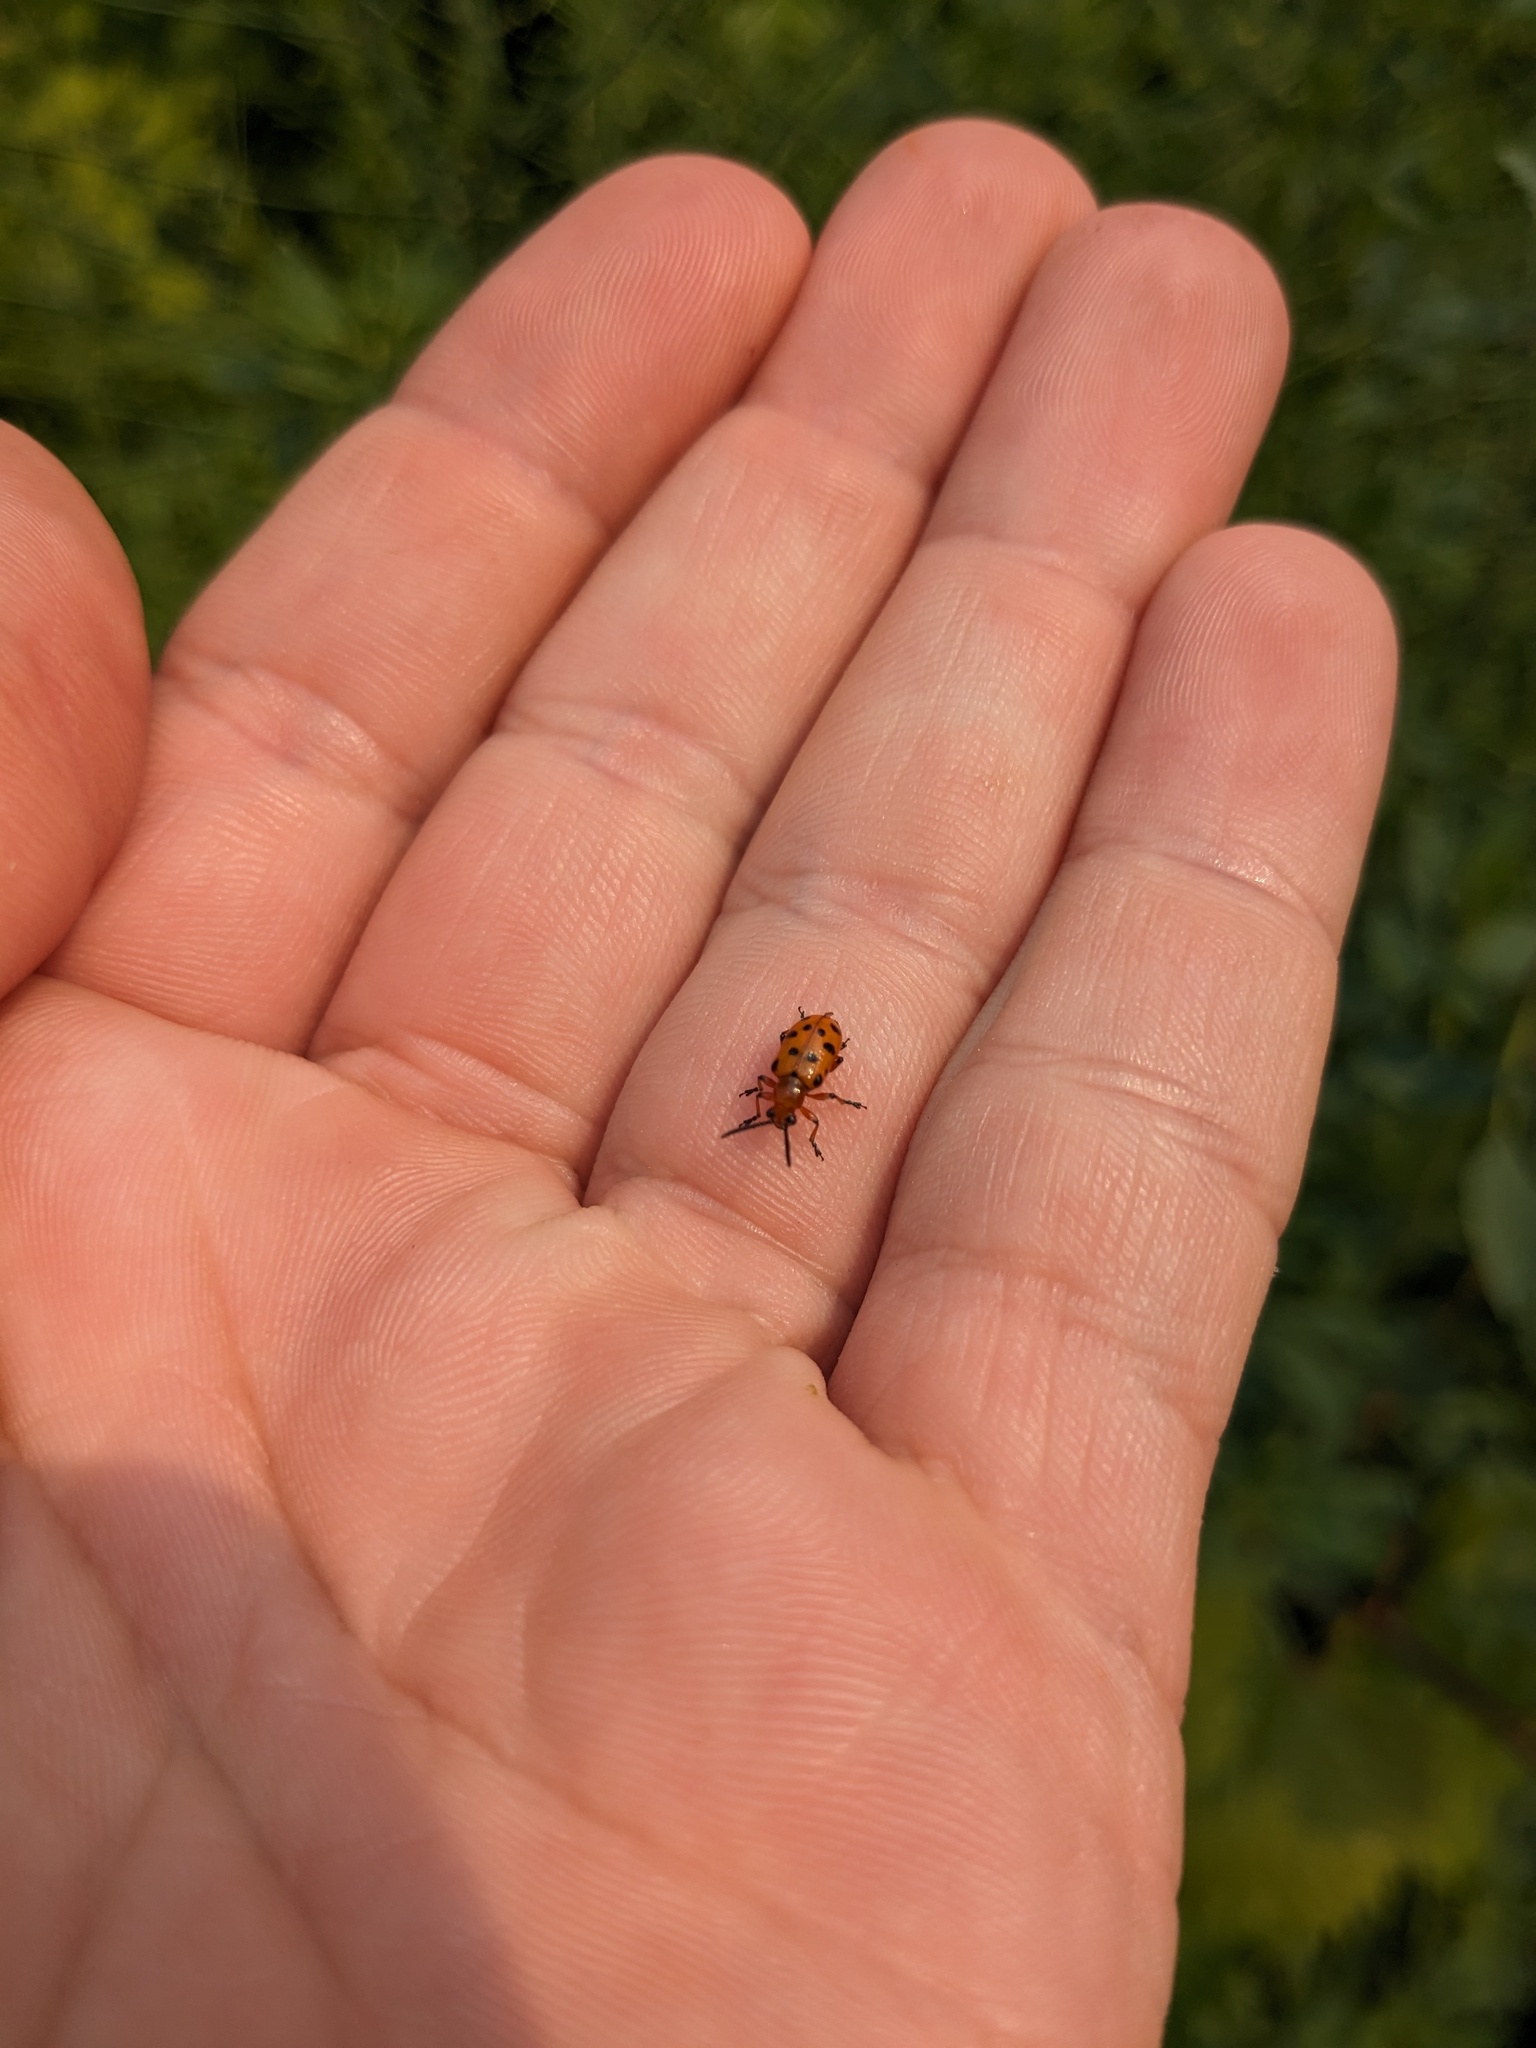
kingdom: Animalia
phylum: Arthropoda
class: Insecta
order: Coleoptera
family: Chrysomelidae
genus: Crioceris
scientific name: Crioceris duodecimpunctata
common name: Twelve-spotted asparagus beetle
